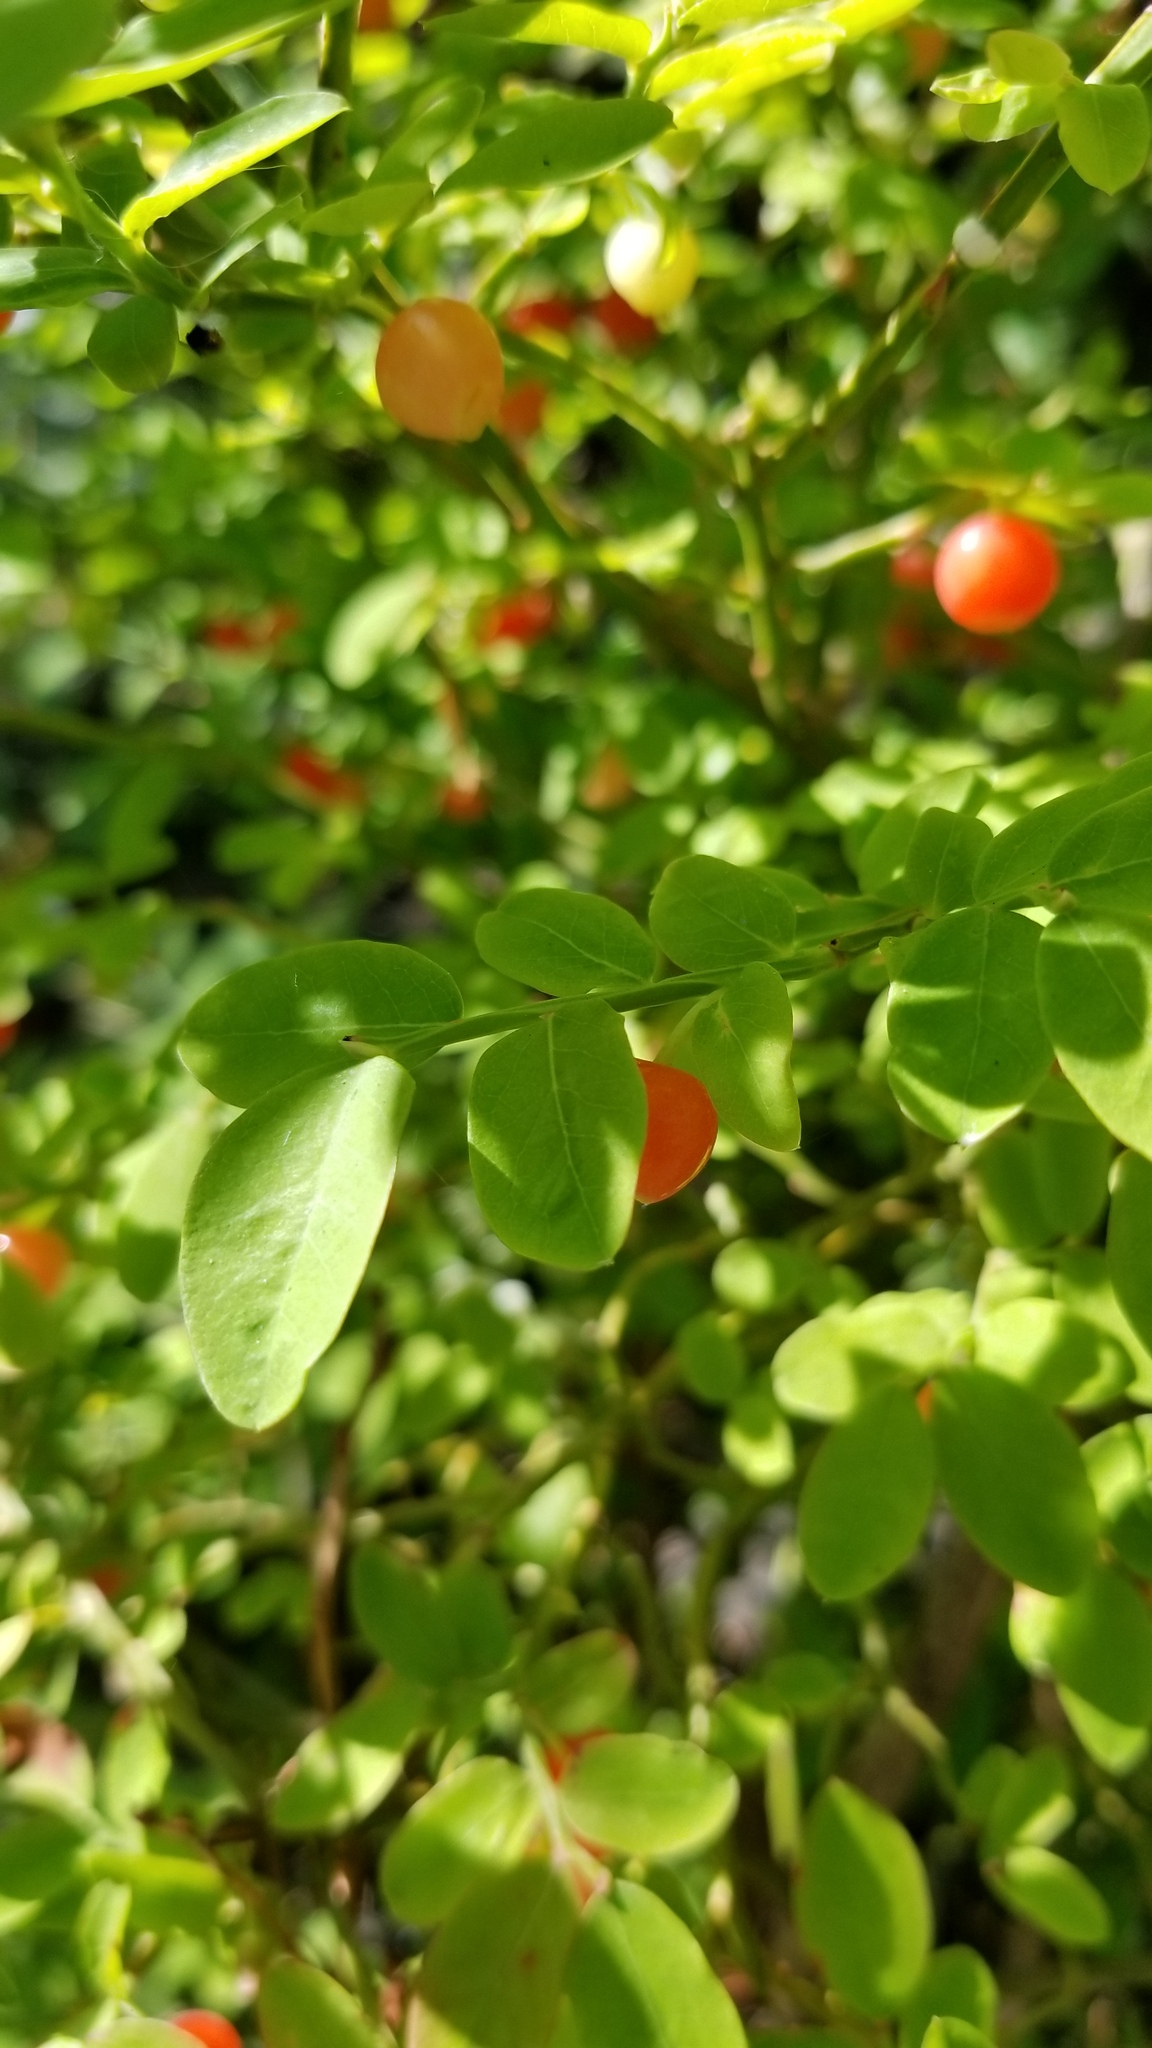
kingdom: Plantae
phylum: Tracheophyta
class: Magnoliopsida
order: Ericales
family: Ericaceae
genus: Vaccinium
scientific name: Vaccinium parvifolium
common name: Red-huckleberry
